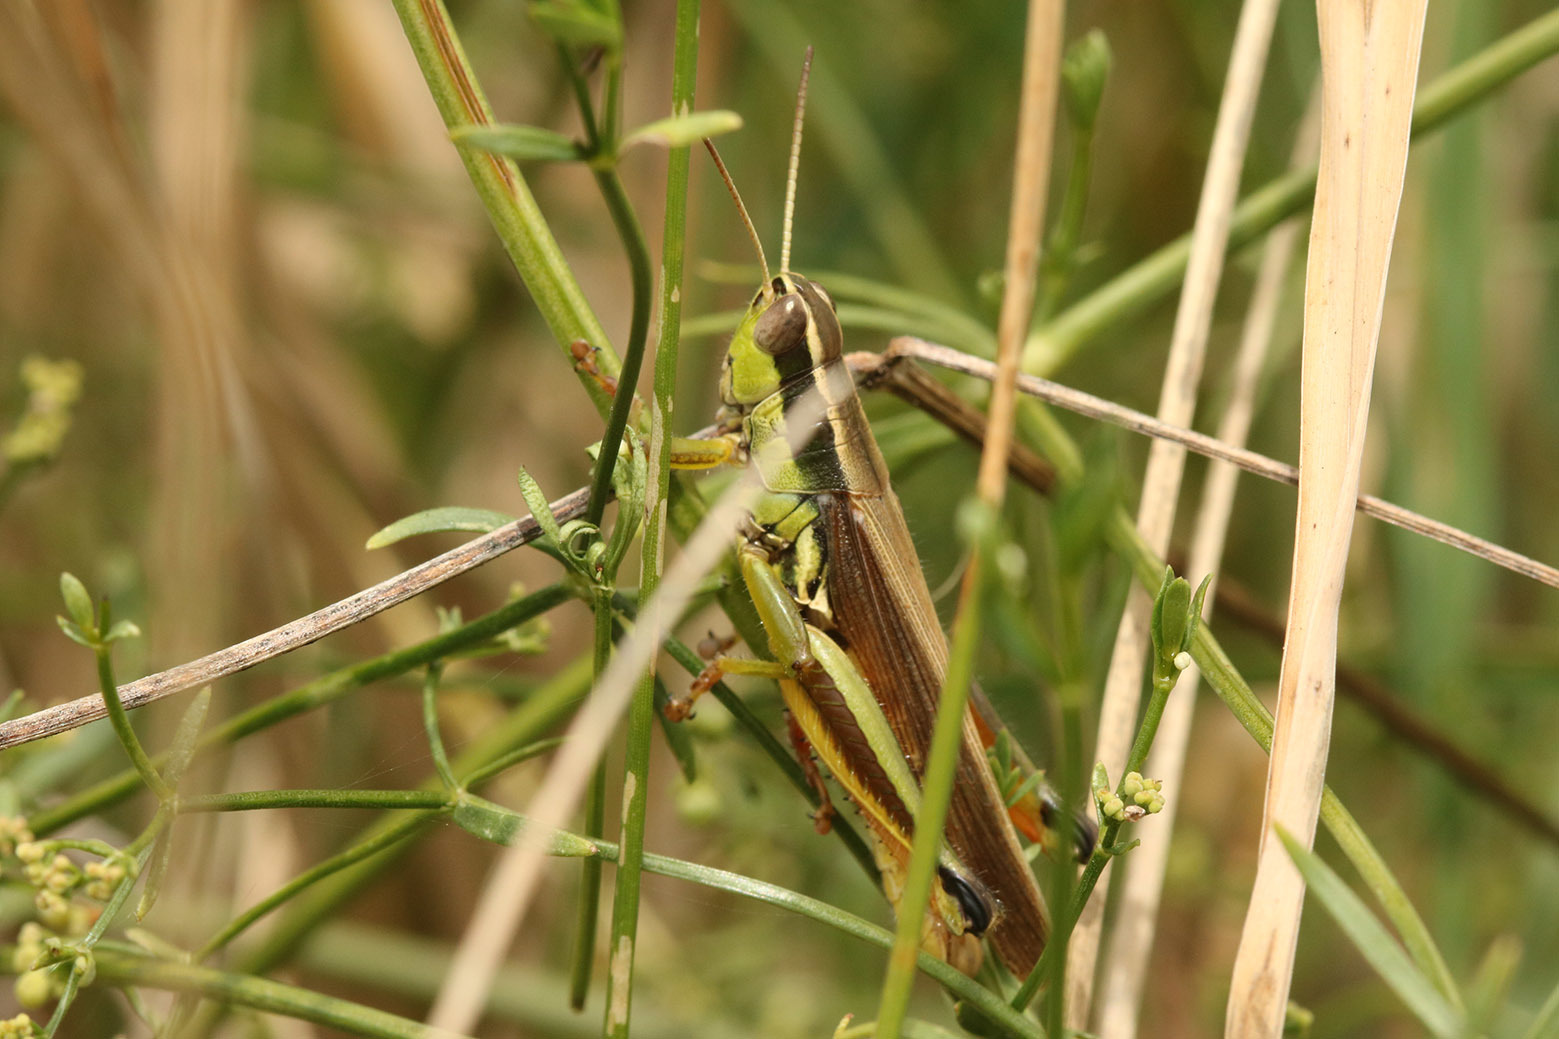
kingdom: Animalia
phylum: Arthropoda
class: Insecta
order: Orthoptera
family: Acrididae
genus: Scotussa
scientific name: Scotussa cliens
